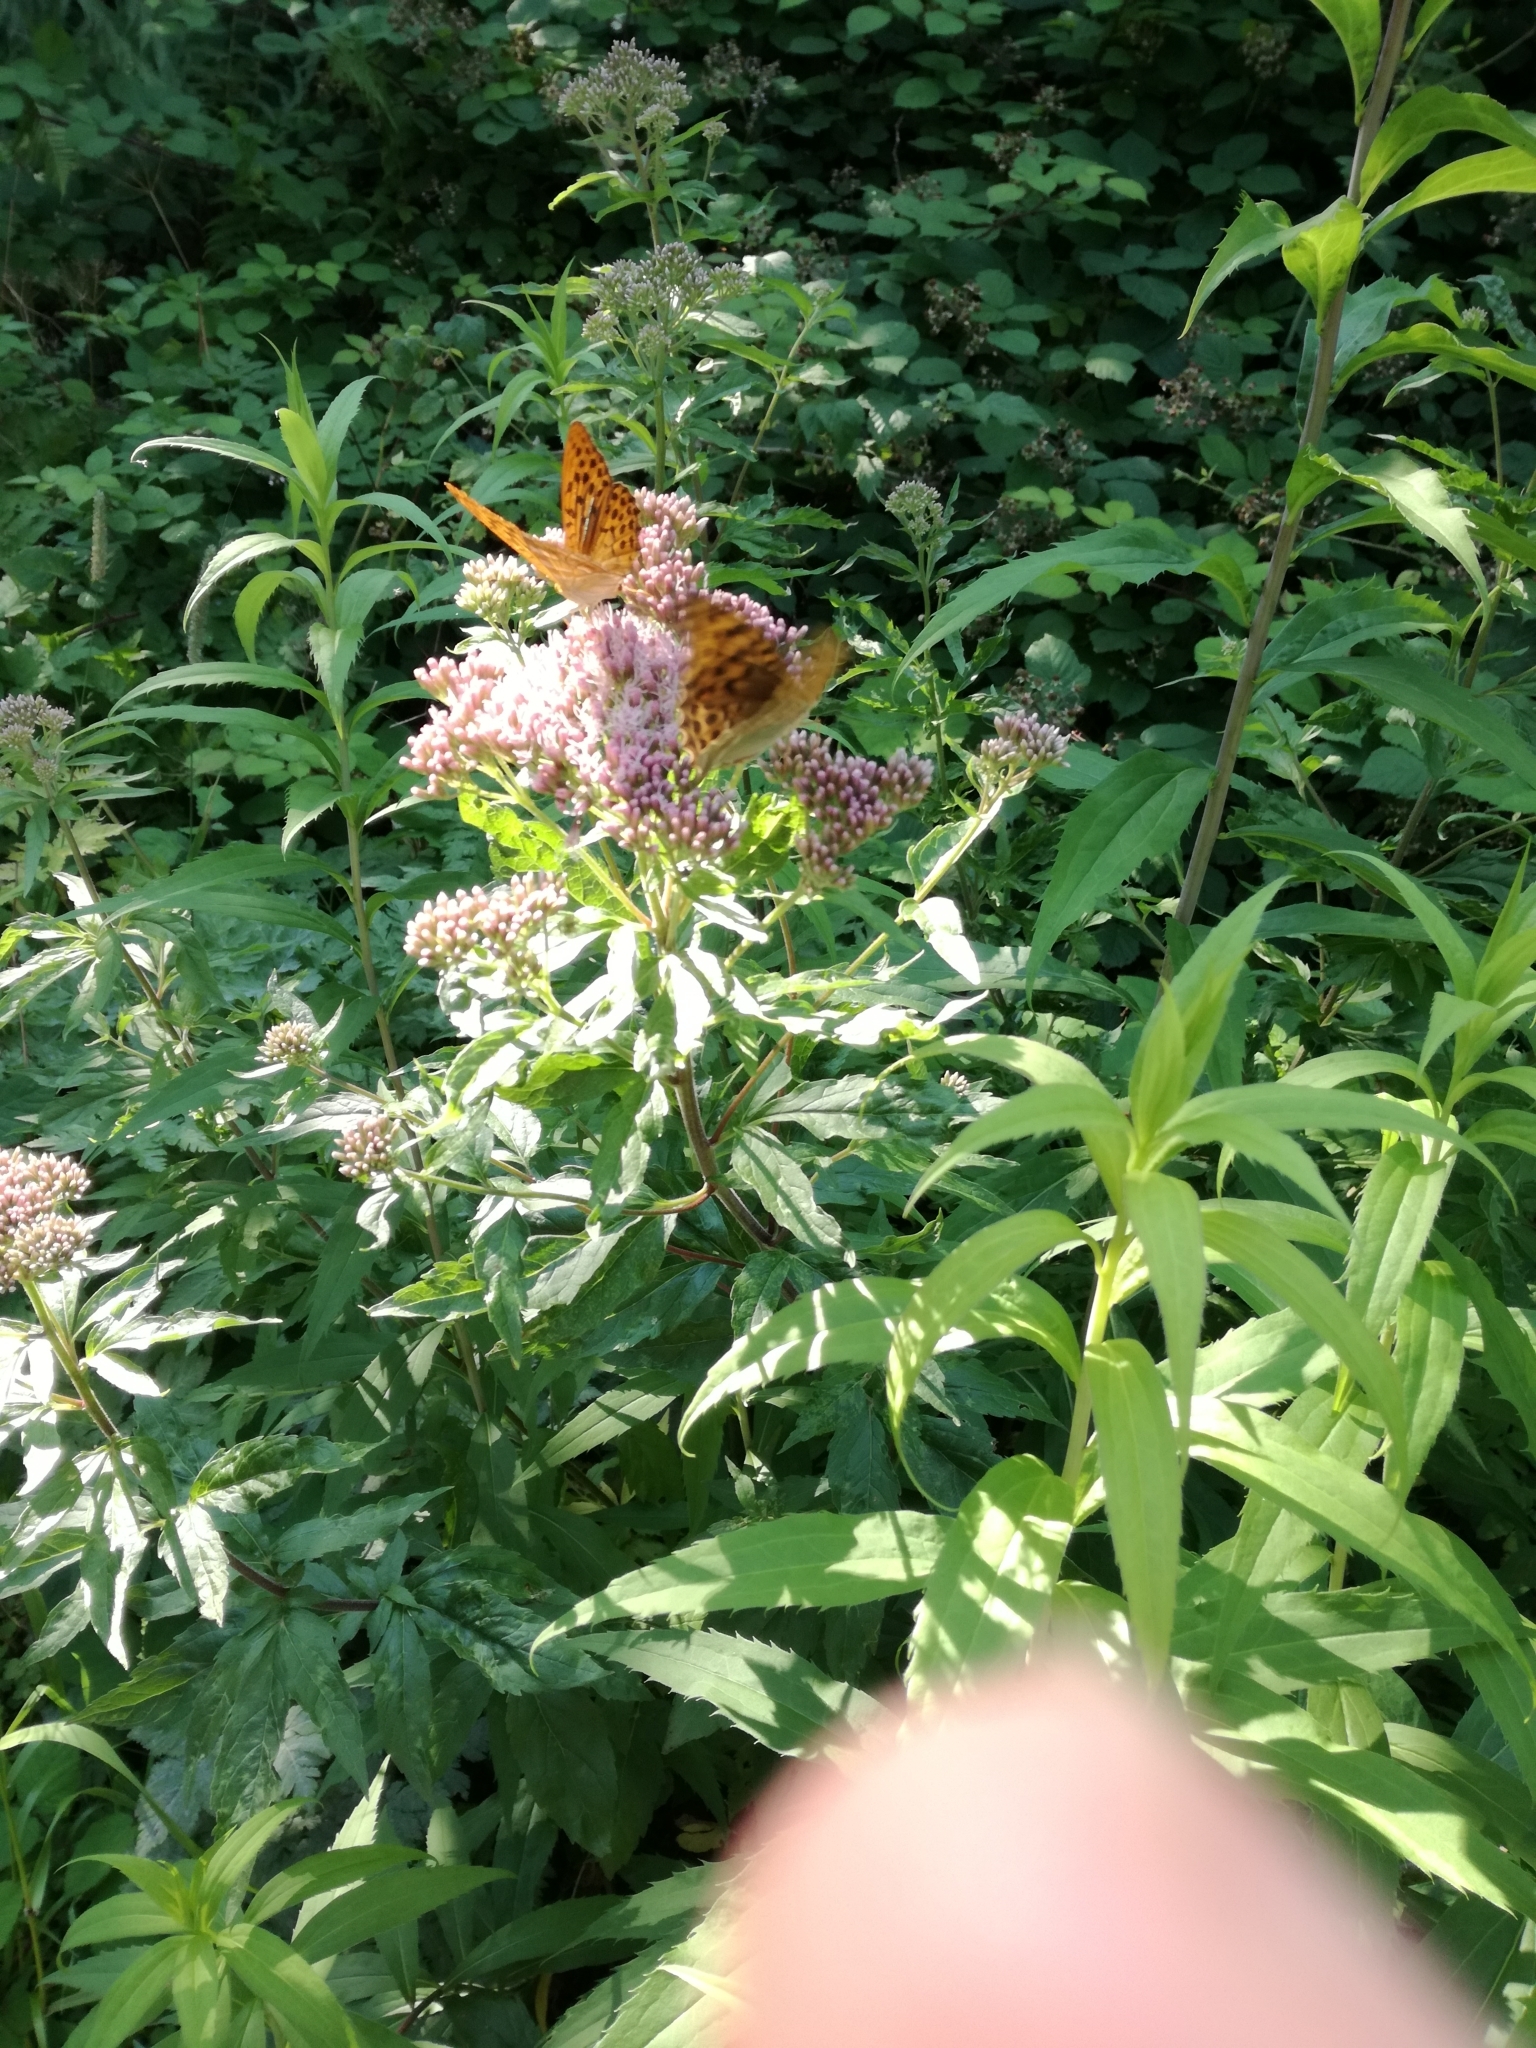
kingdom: Animalia
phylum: Arthropoda
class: Insecta
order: Lepidoptera
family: Nymphalidae
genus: Argynnis
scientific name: Argynnis paphia
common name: Silver-washed fritillary
